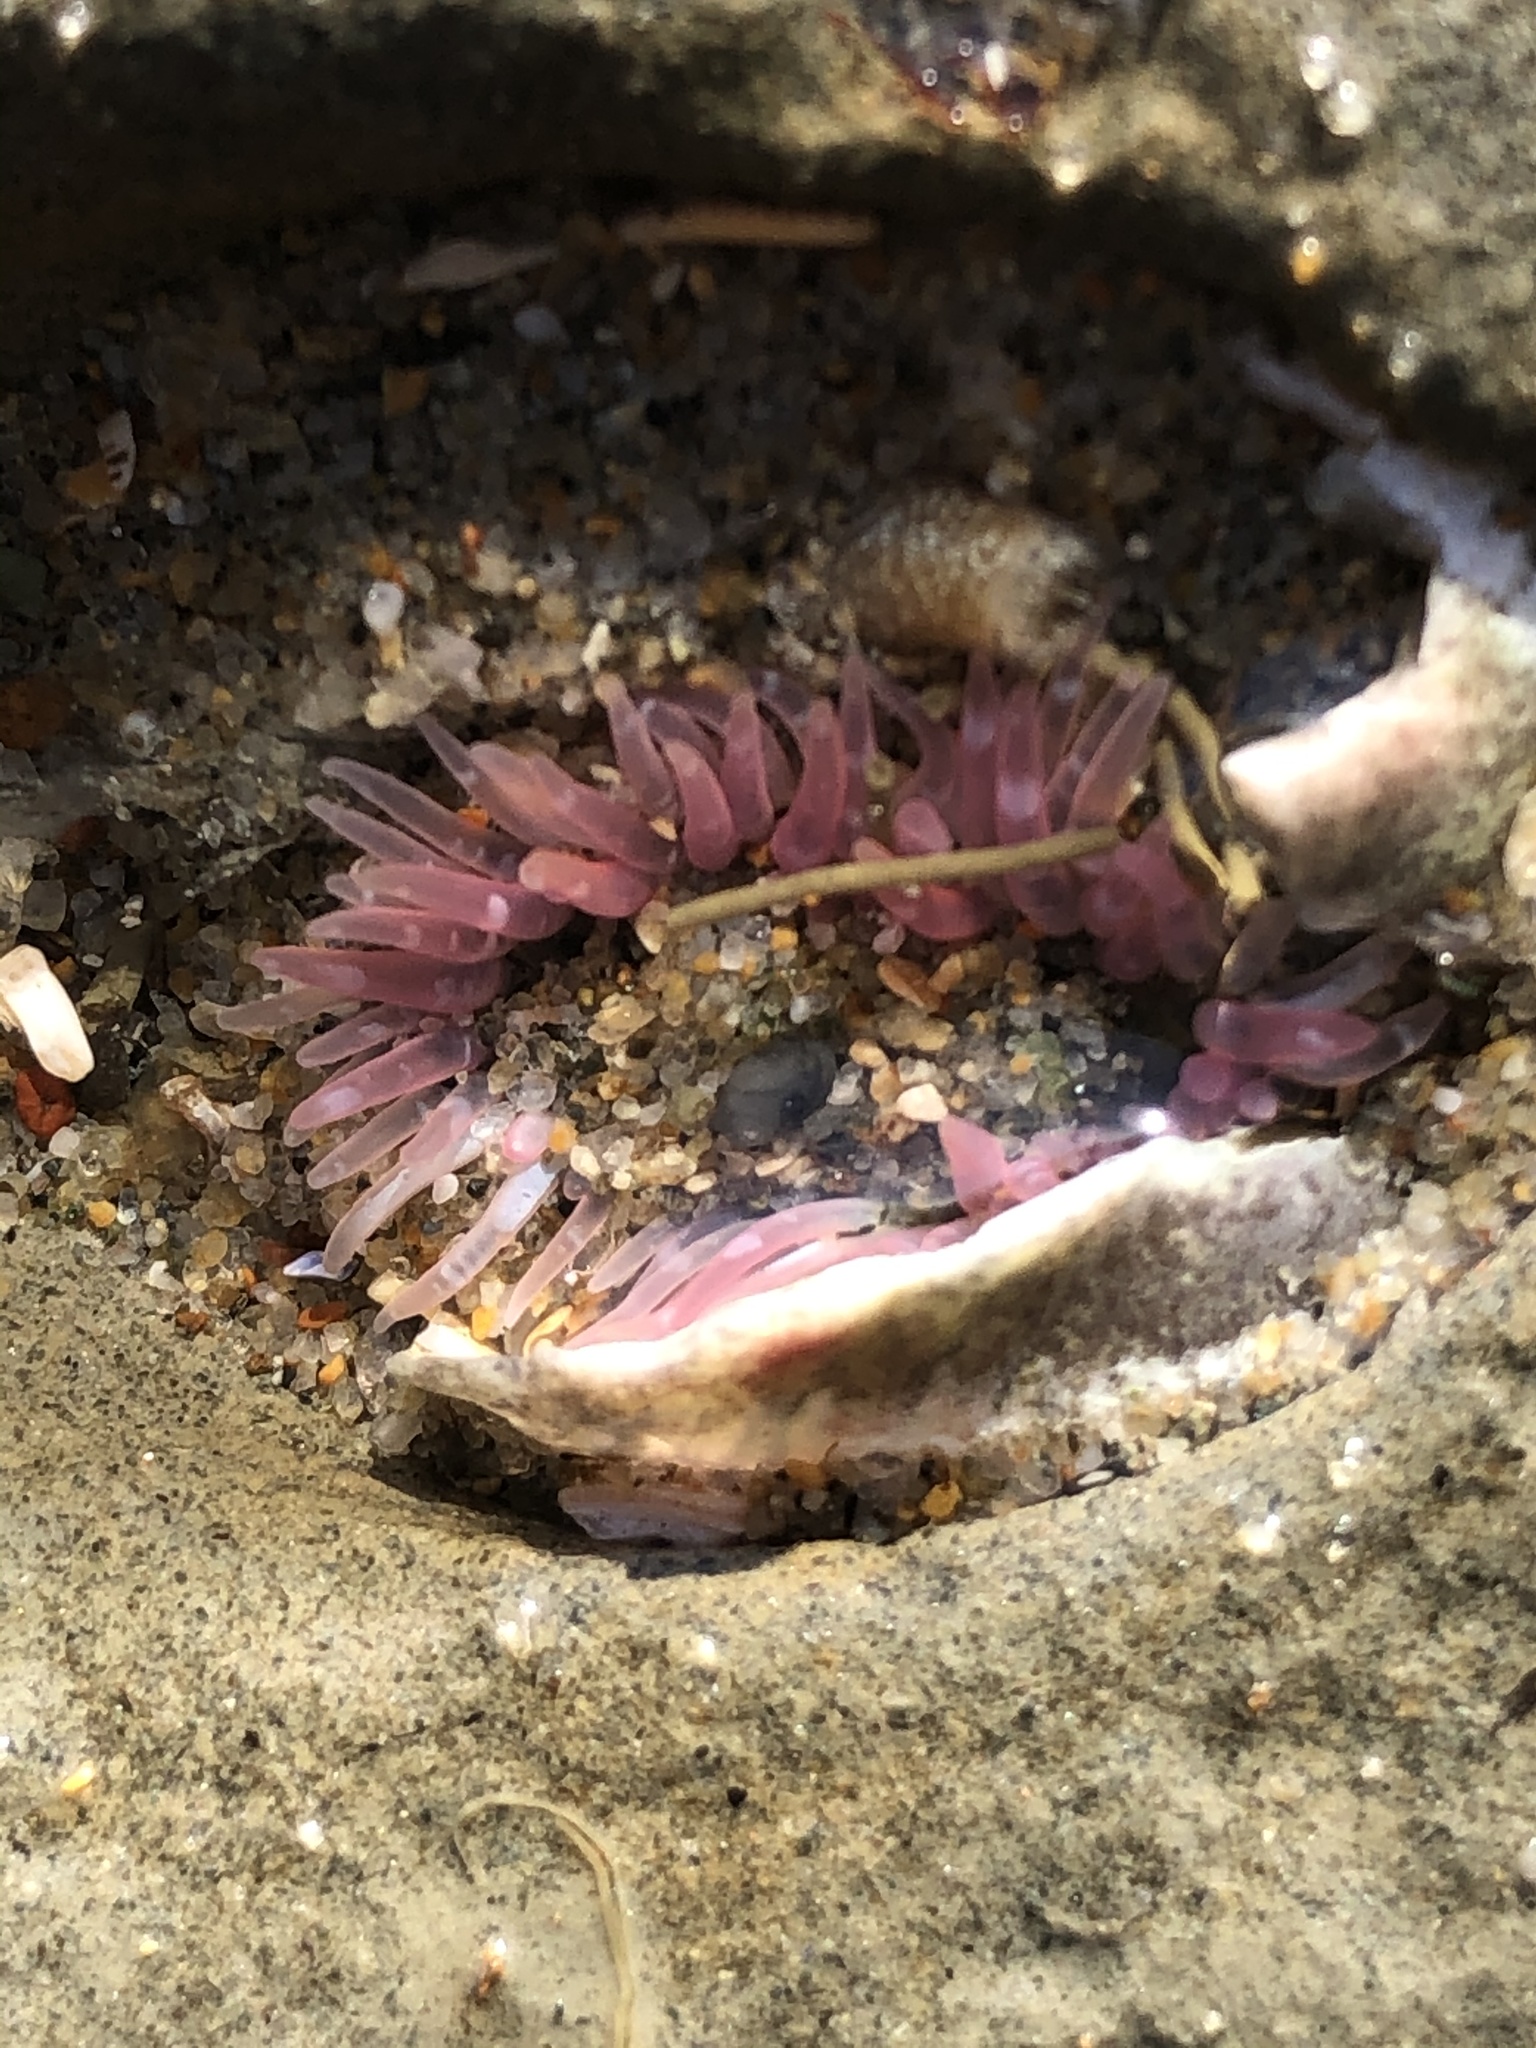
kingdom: Animalia
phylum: Cnidaria
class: Anthozoa
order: Actiniaria
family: Actiniidae
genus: Anthopleura
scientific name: Anthopleura artemisia
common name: Buried sea anemone
